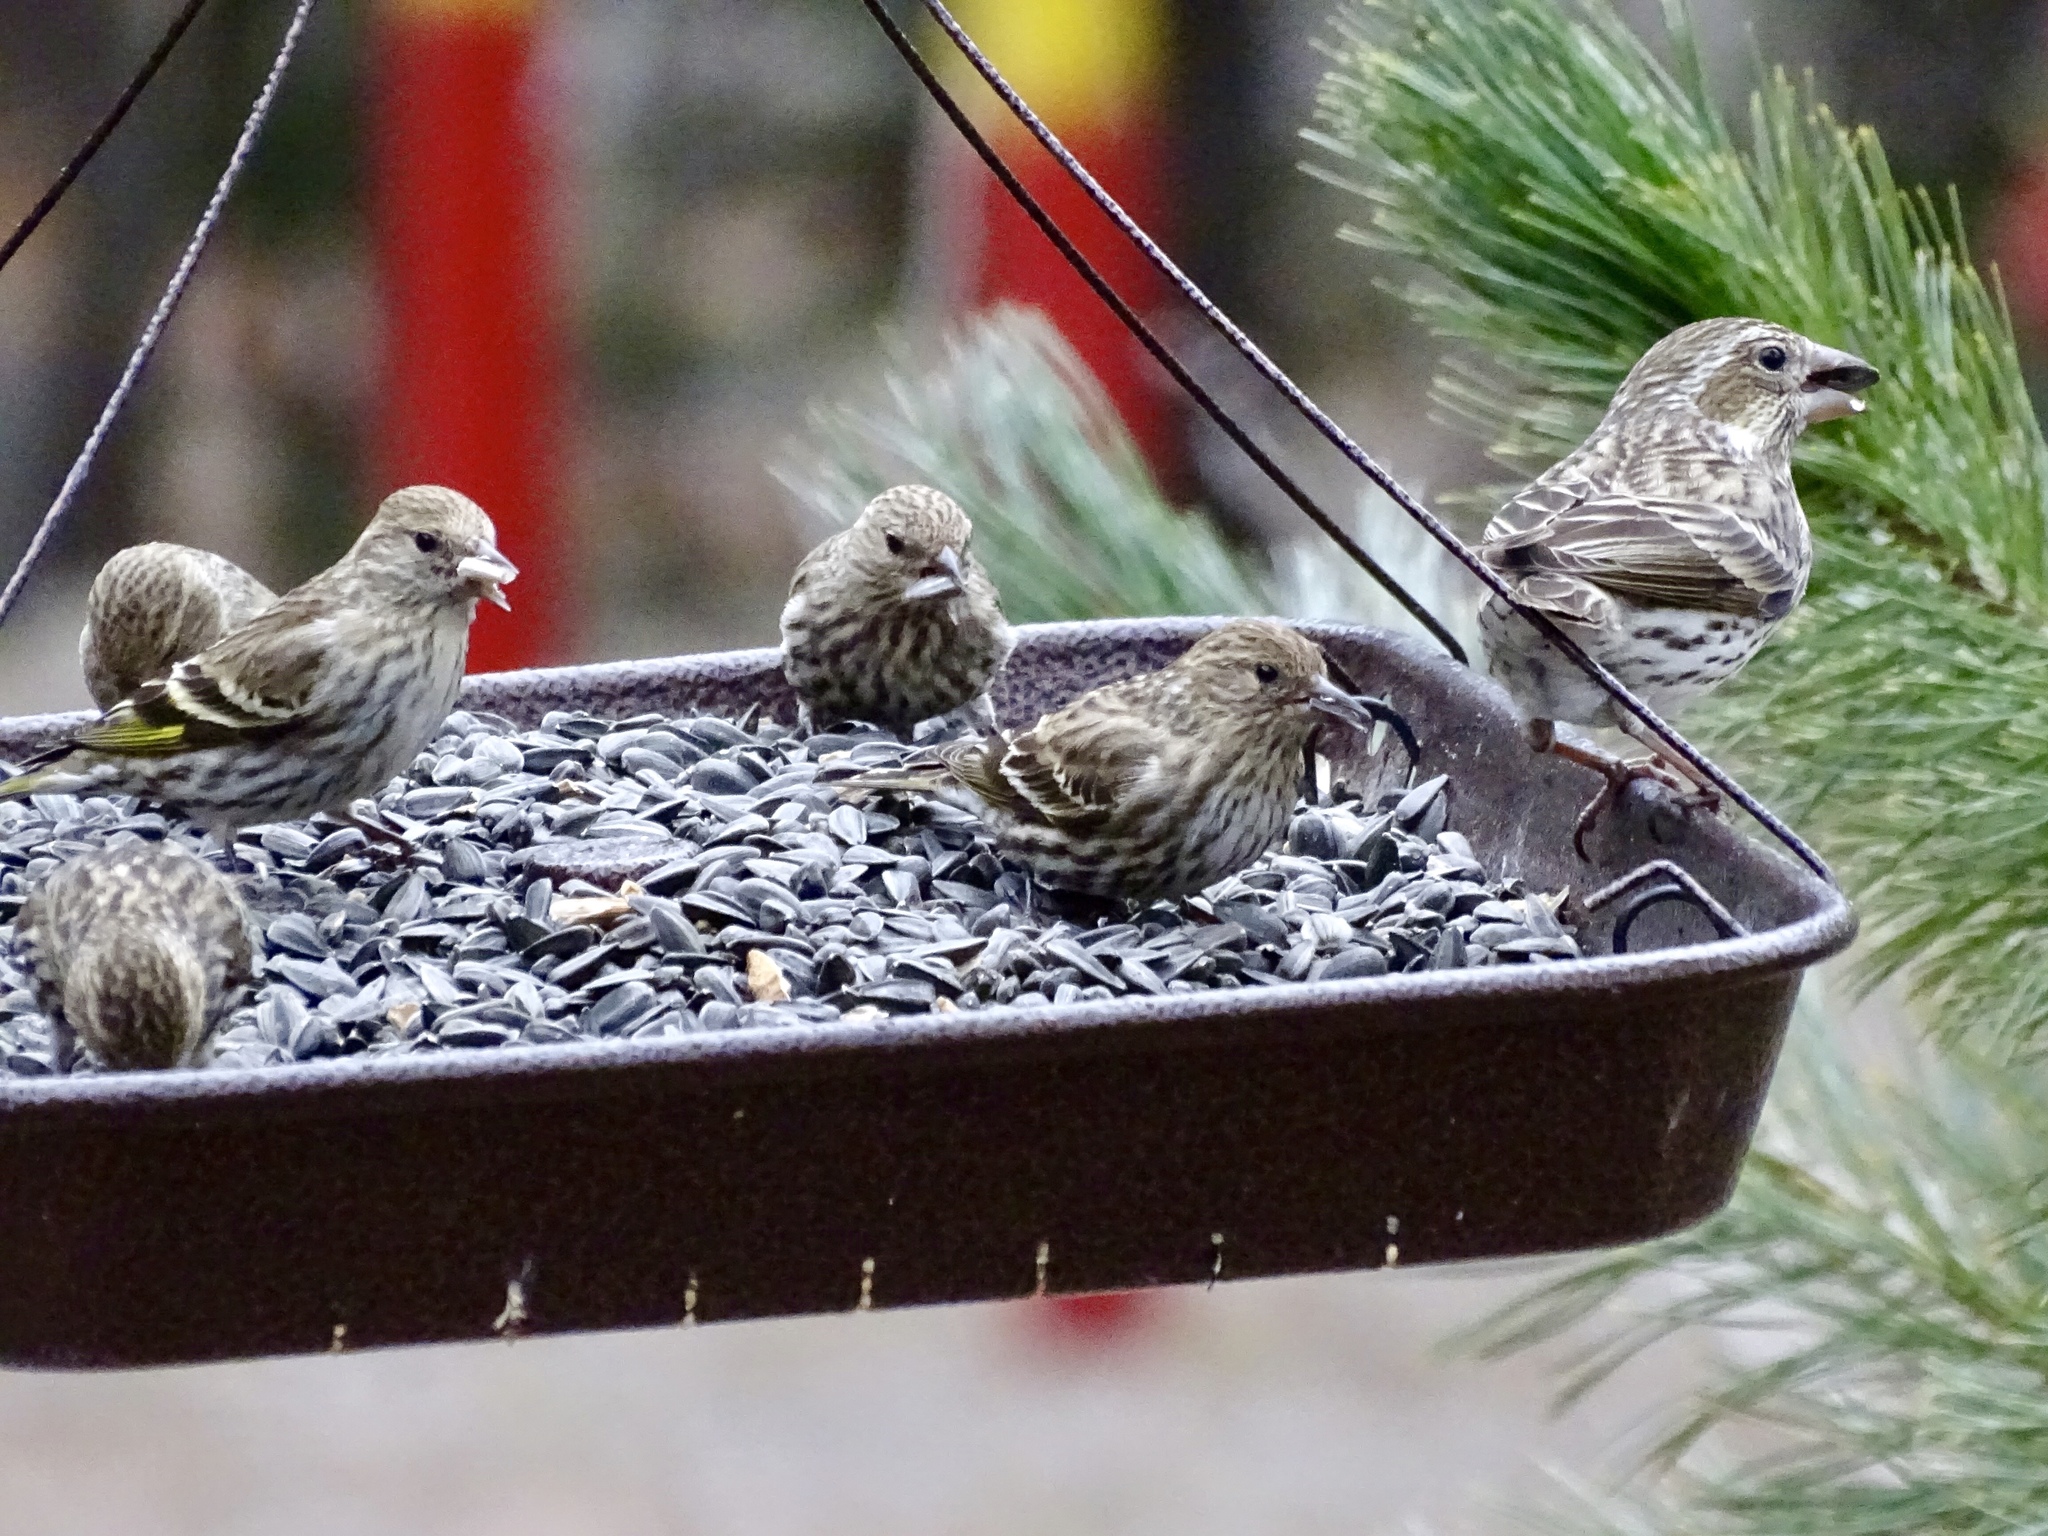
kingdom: Animalia
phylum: Chordata
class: Aves
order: Passeriformes
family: Fringillidae
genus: Spinus
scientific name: Spinus pinus
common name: Pine siskin
